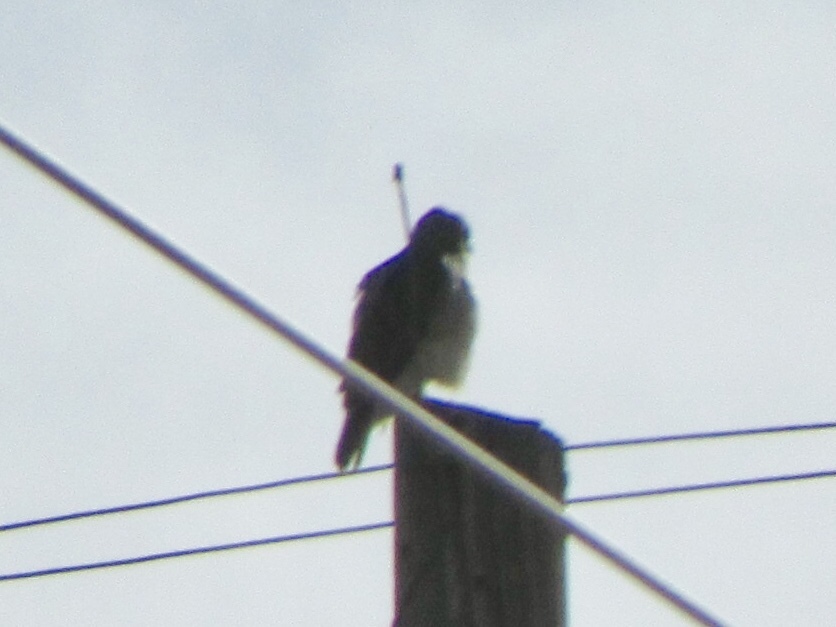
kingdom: Animalia
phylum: Chordata
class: Aves
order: Accipitriformes
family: Accipitridae
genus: Buteo
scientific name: Buteo jamaicensis
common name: Red-tailed hawk
